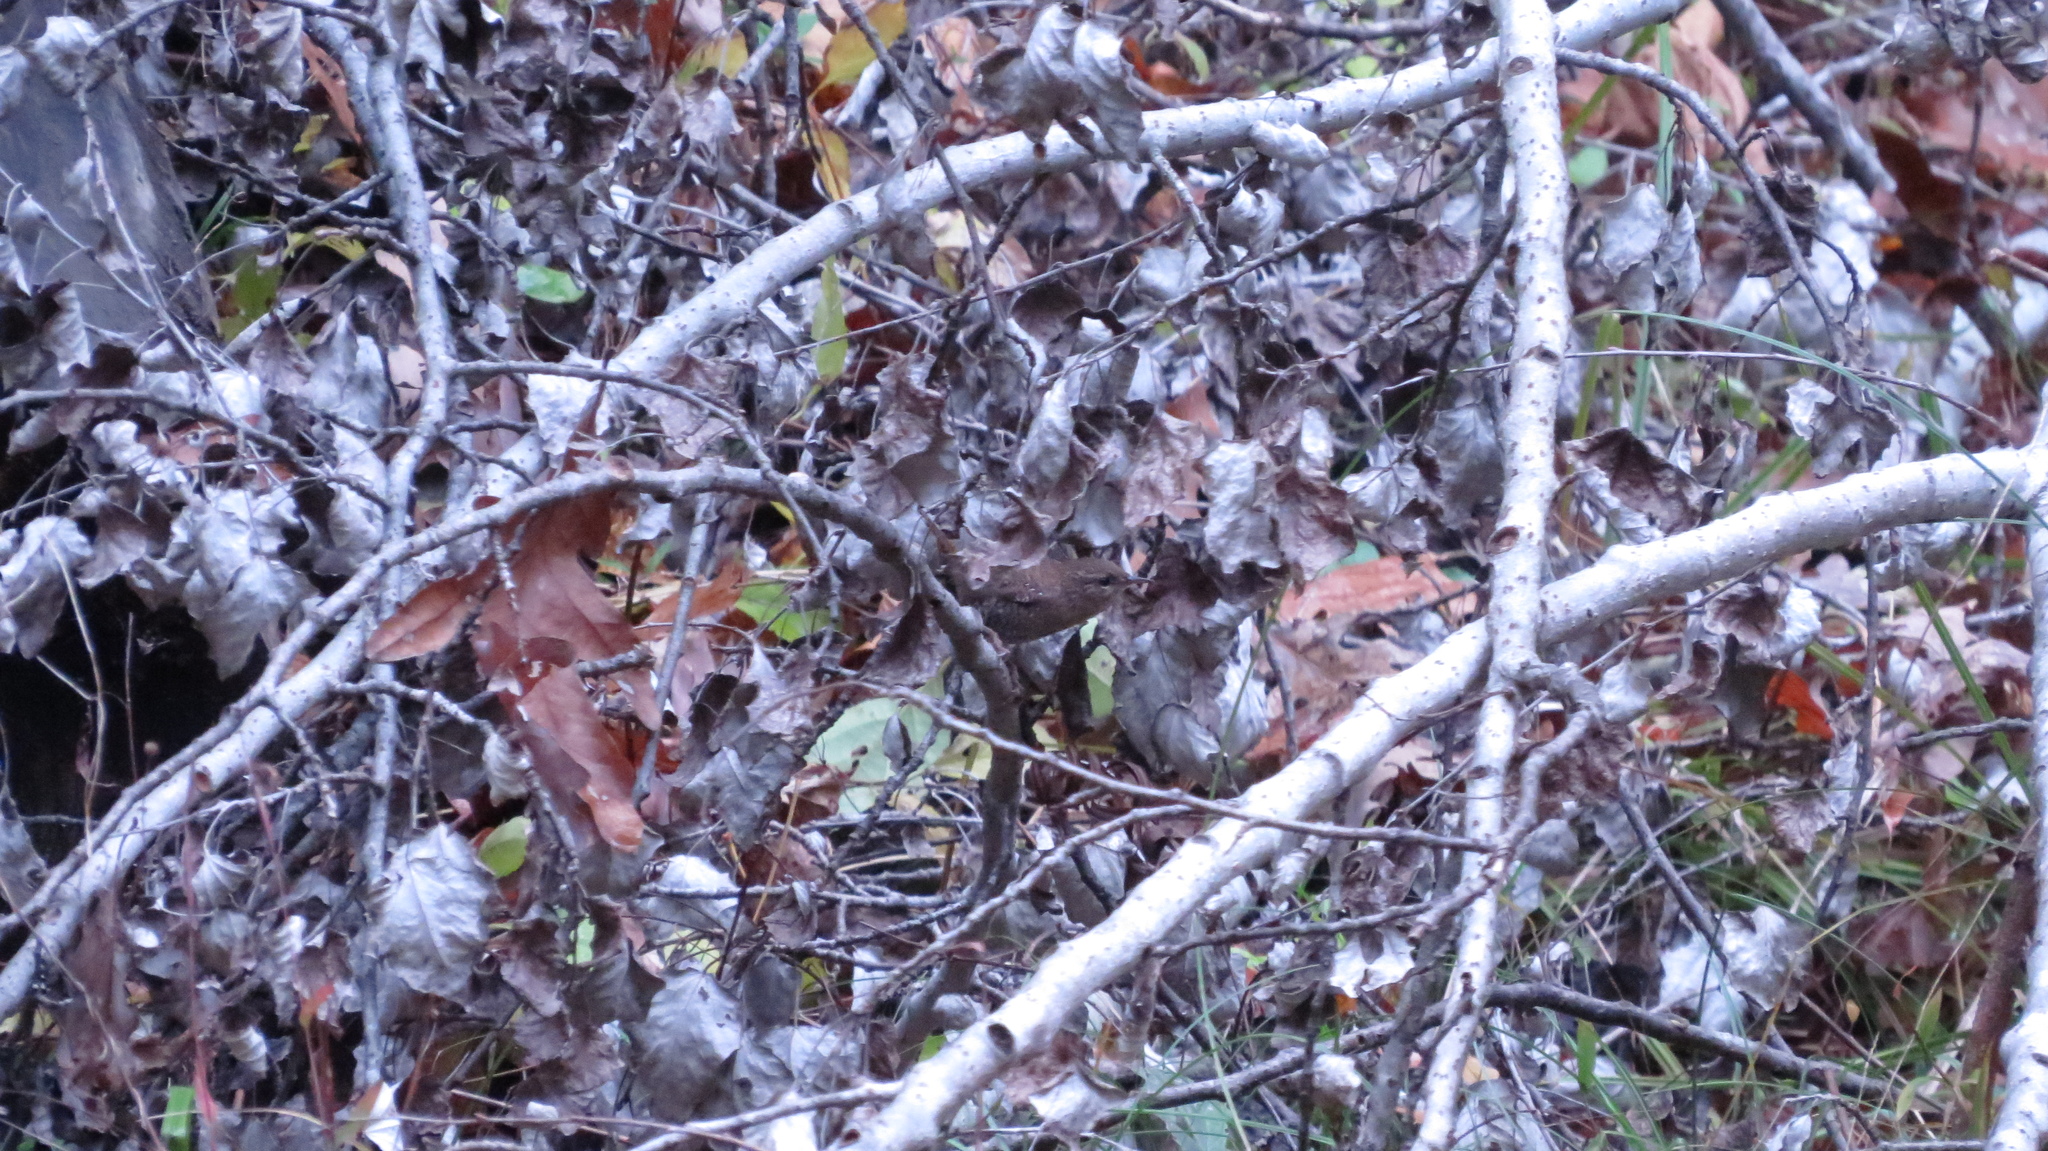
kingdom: Animalia
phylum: Chordata
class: Aves
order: Passeriformes
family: Troglodytidae
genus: Troglodytes
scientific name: Troglodytes hiemalis
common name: Winter wren
